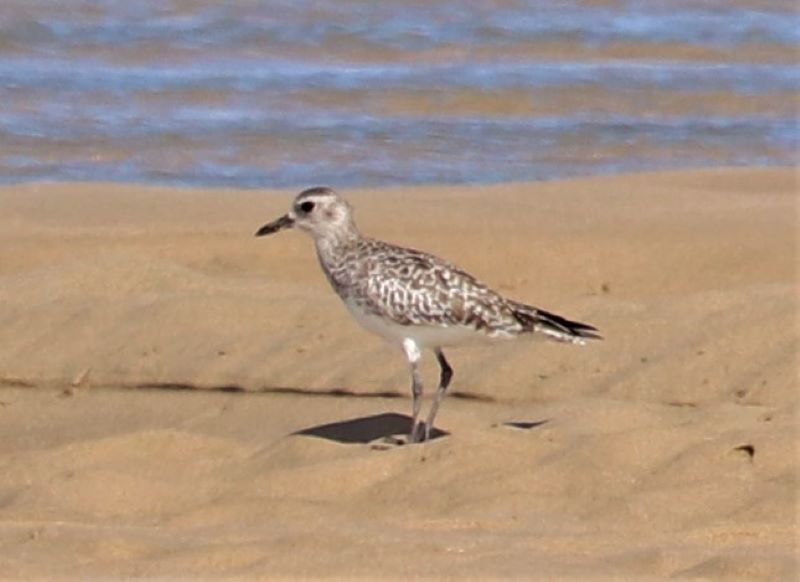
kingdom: Animalia
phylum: Chordata
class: Aves
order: Charadriiformes
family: Charadriidae
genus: Pluvialis
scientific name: Pluvialis squatarola
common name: Grey plover
